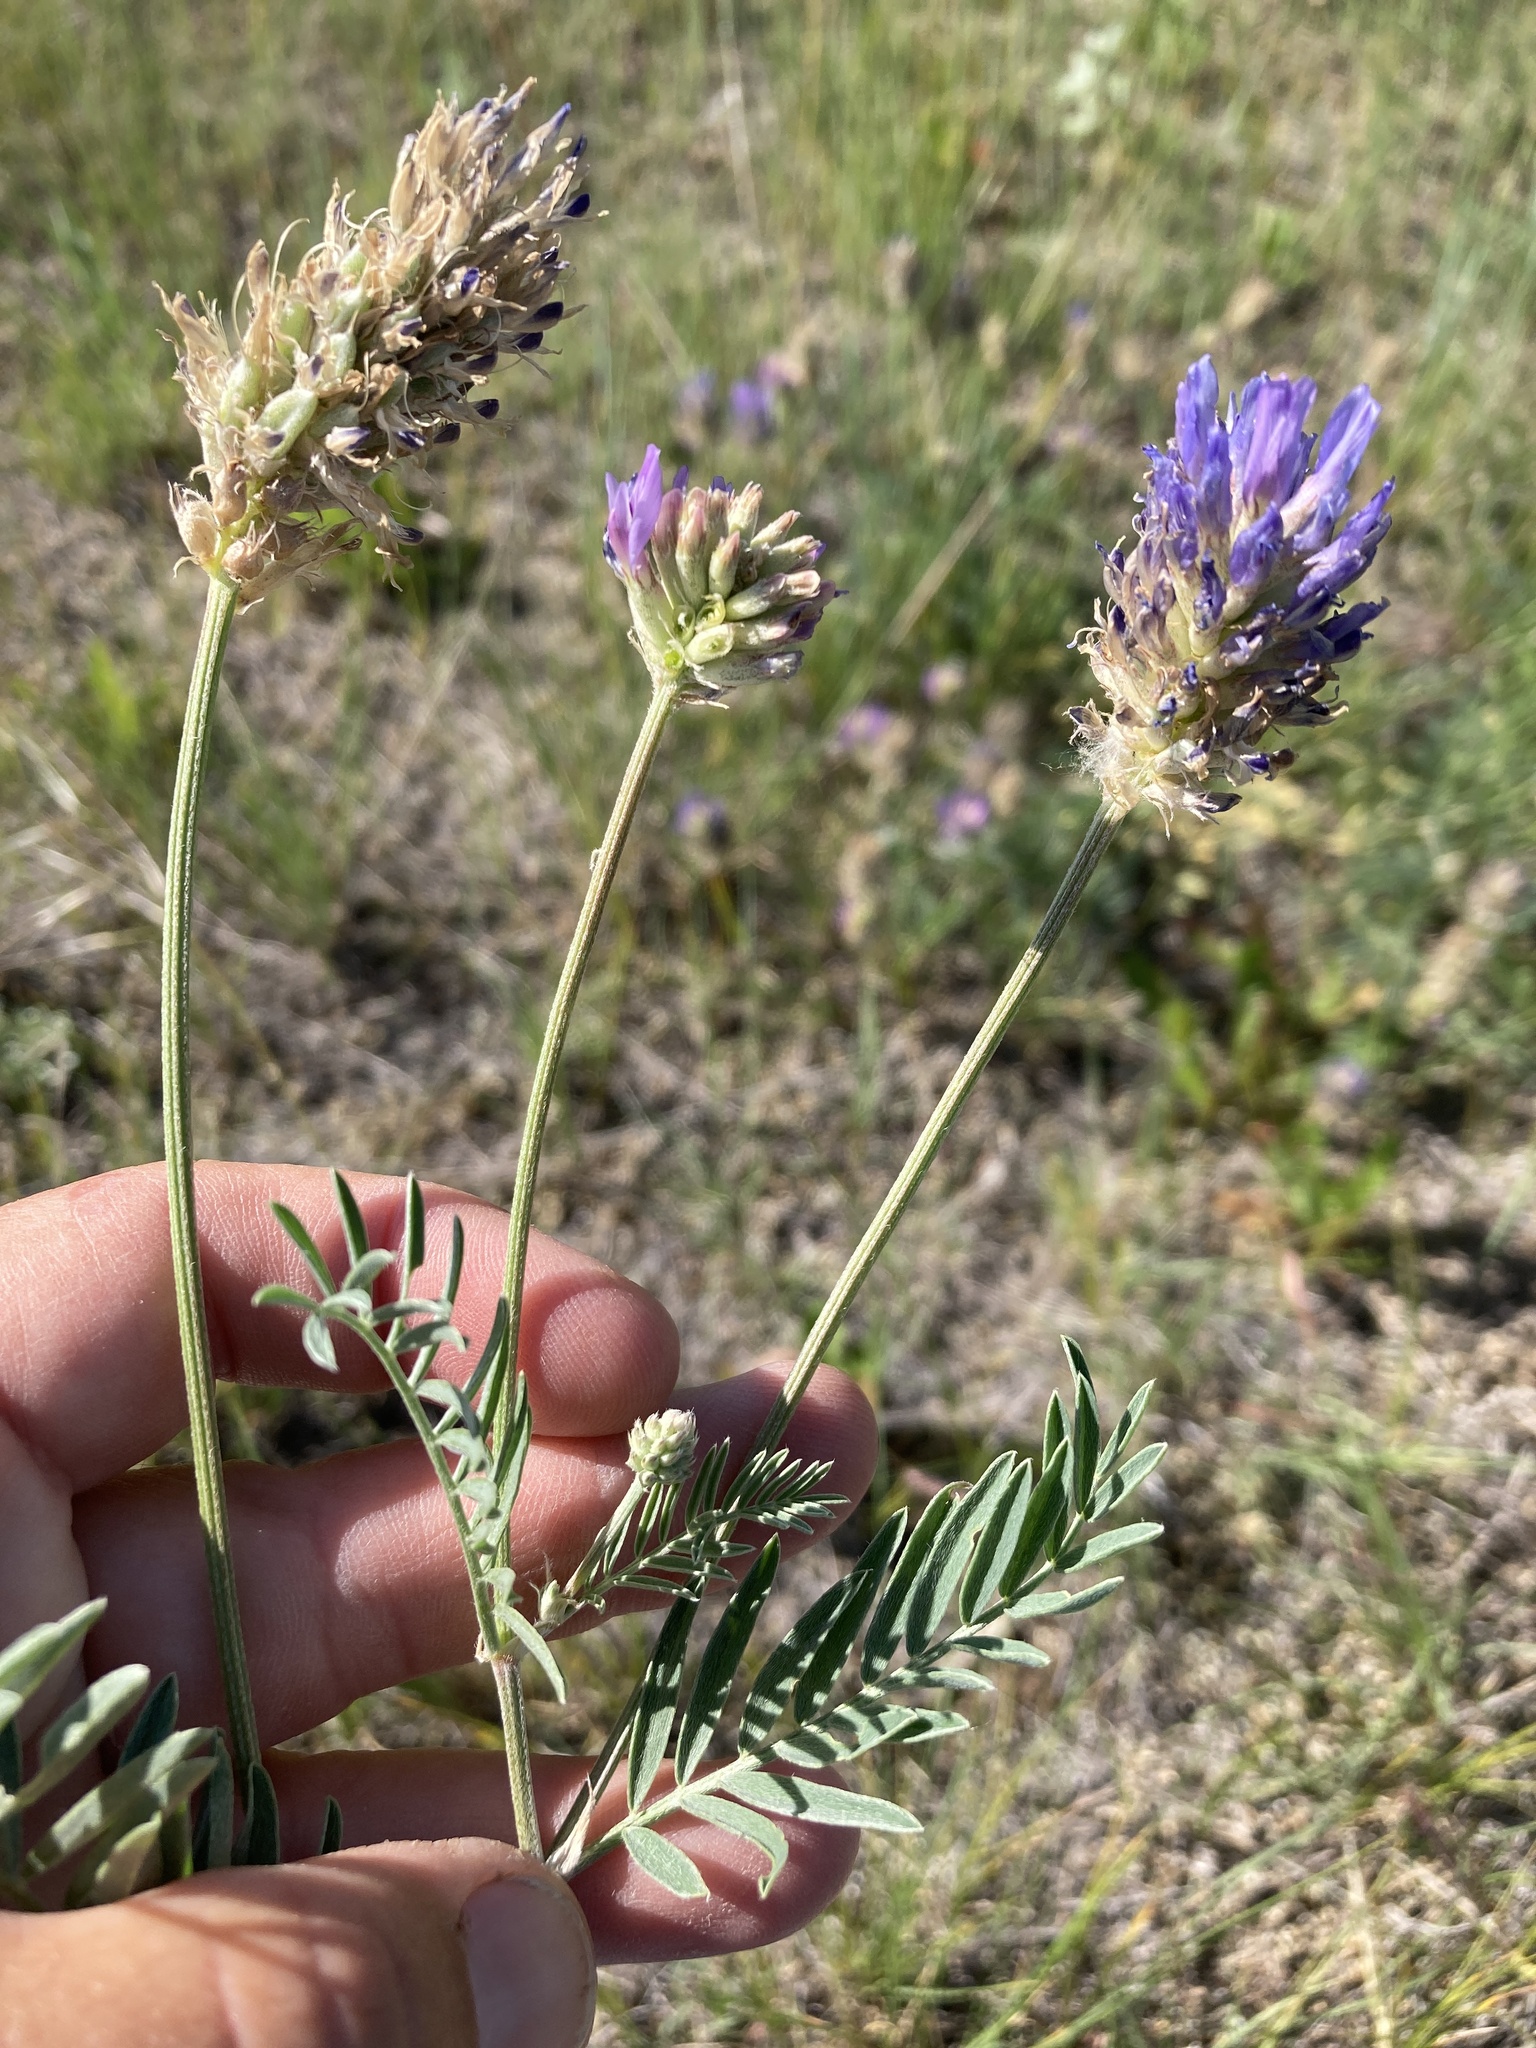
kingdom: Plantae
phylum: Tracheophyta
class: Magnoliopsida
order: Fabales
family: Fabaceae
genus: Astragalus
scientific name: Astragalus laxmannii
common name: Laxmann's milk-vetch
